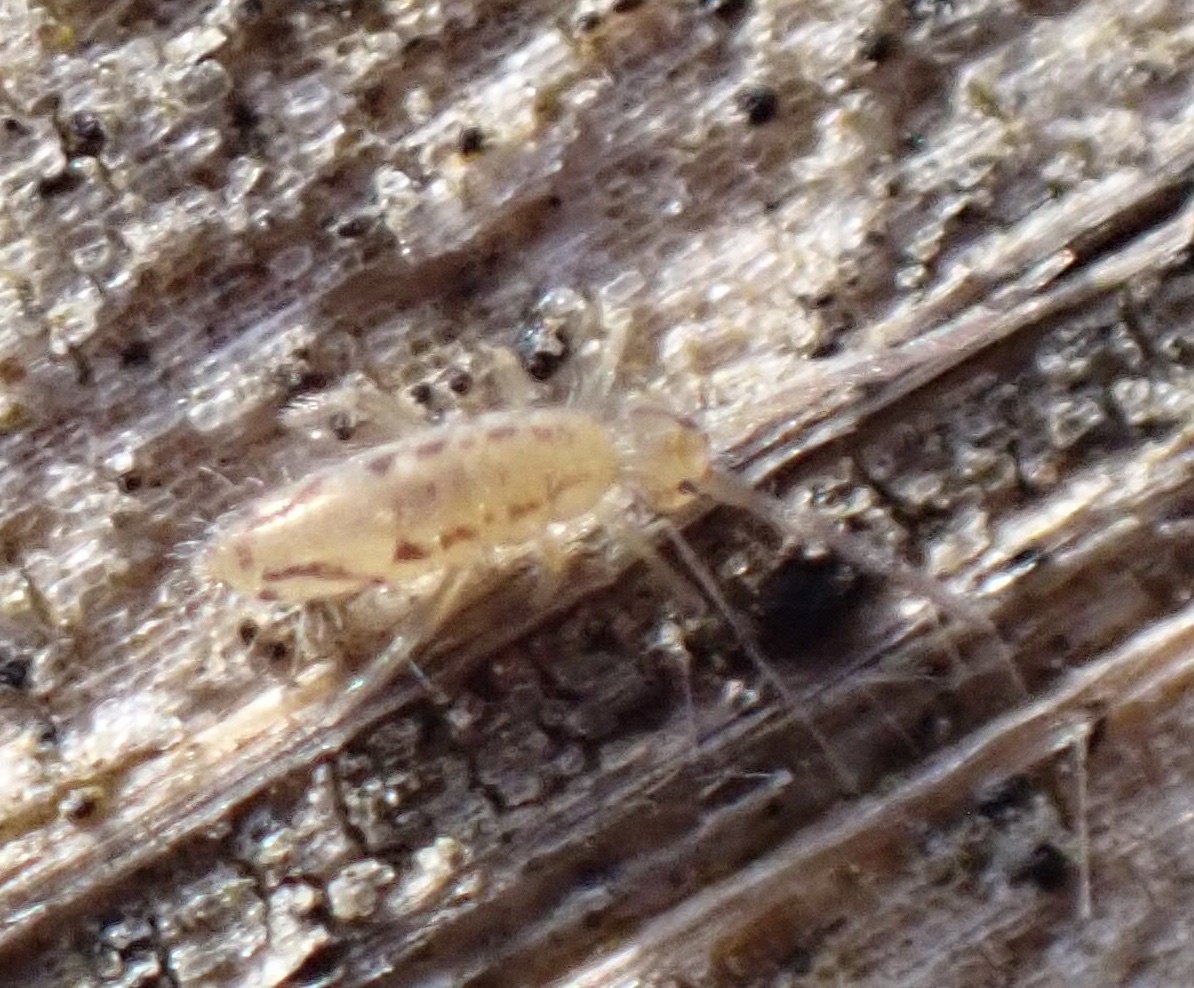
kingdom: Animalia
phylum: Arthropoda
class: Collembola
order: Entomobryomorpha
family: Entomobryidae
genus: Entomobrya
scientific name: Entomobrya nivalis
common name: Cosmopolitan springtail
